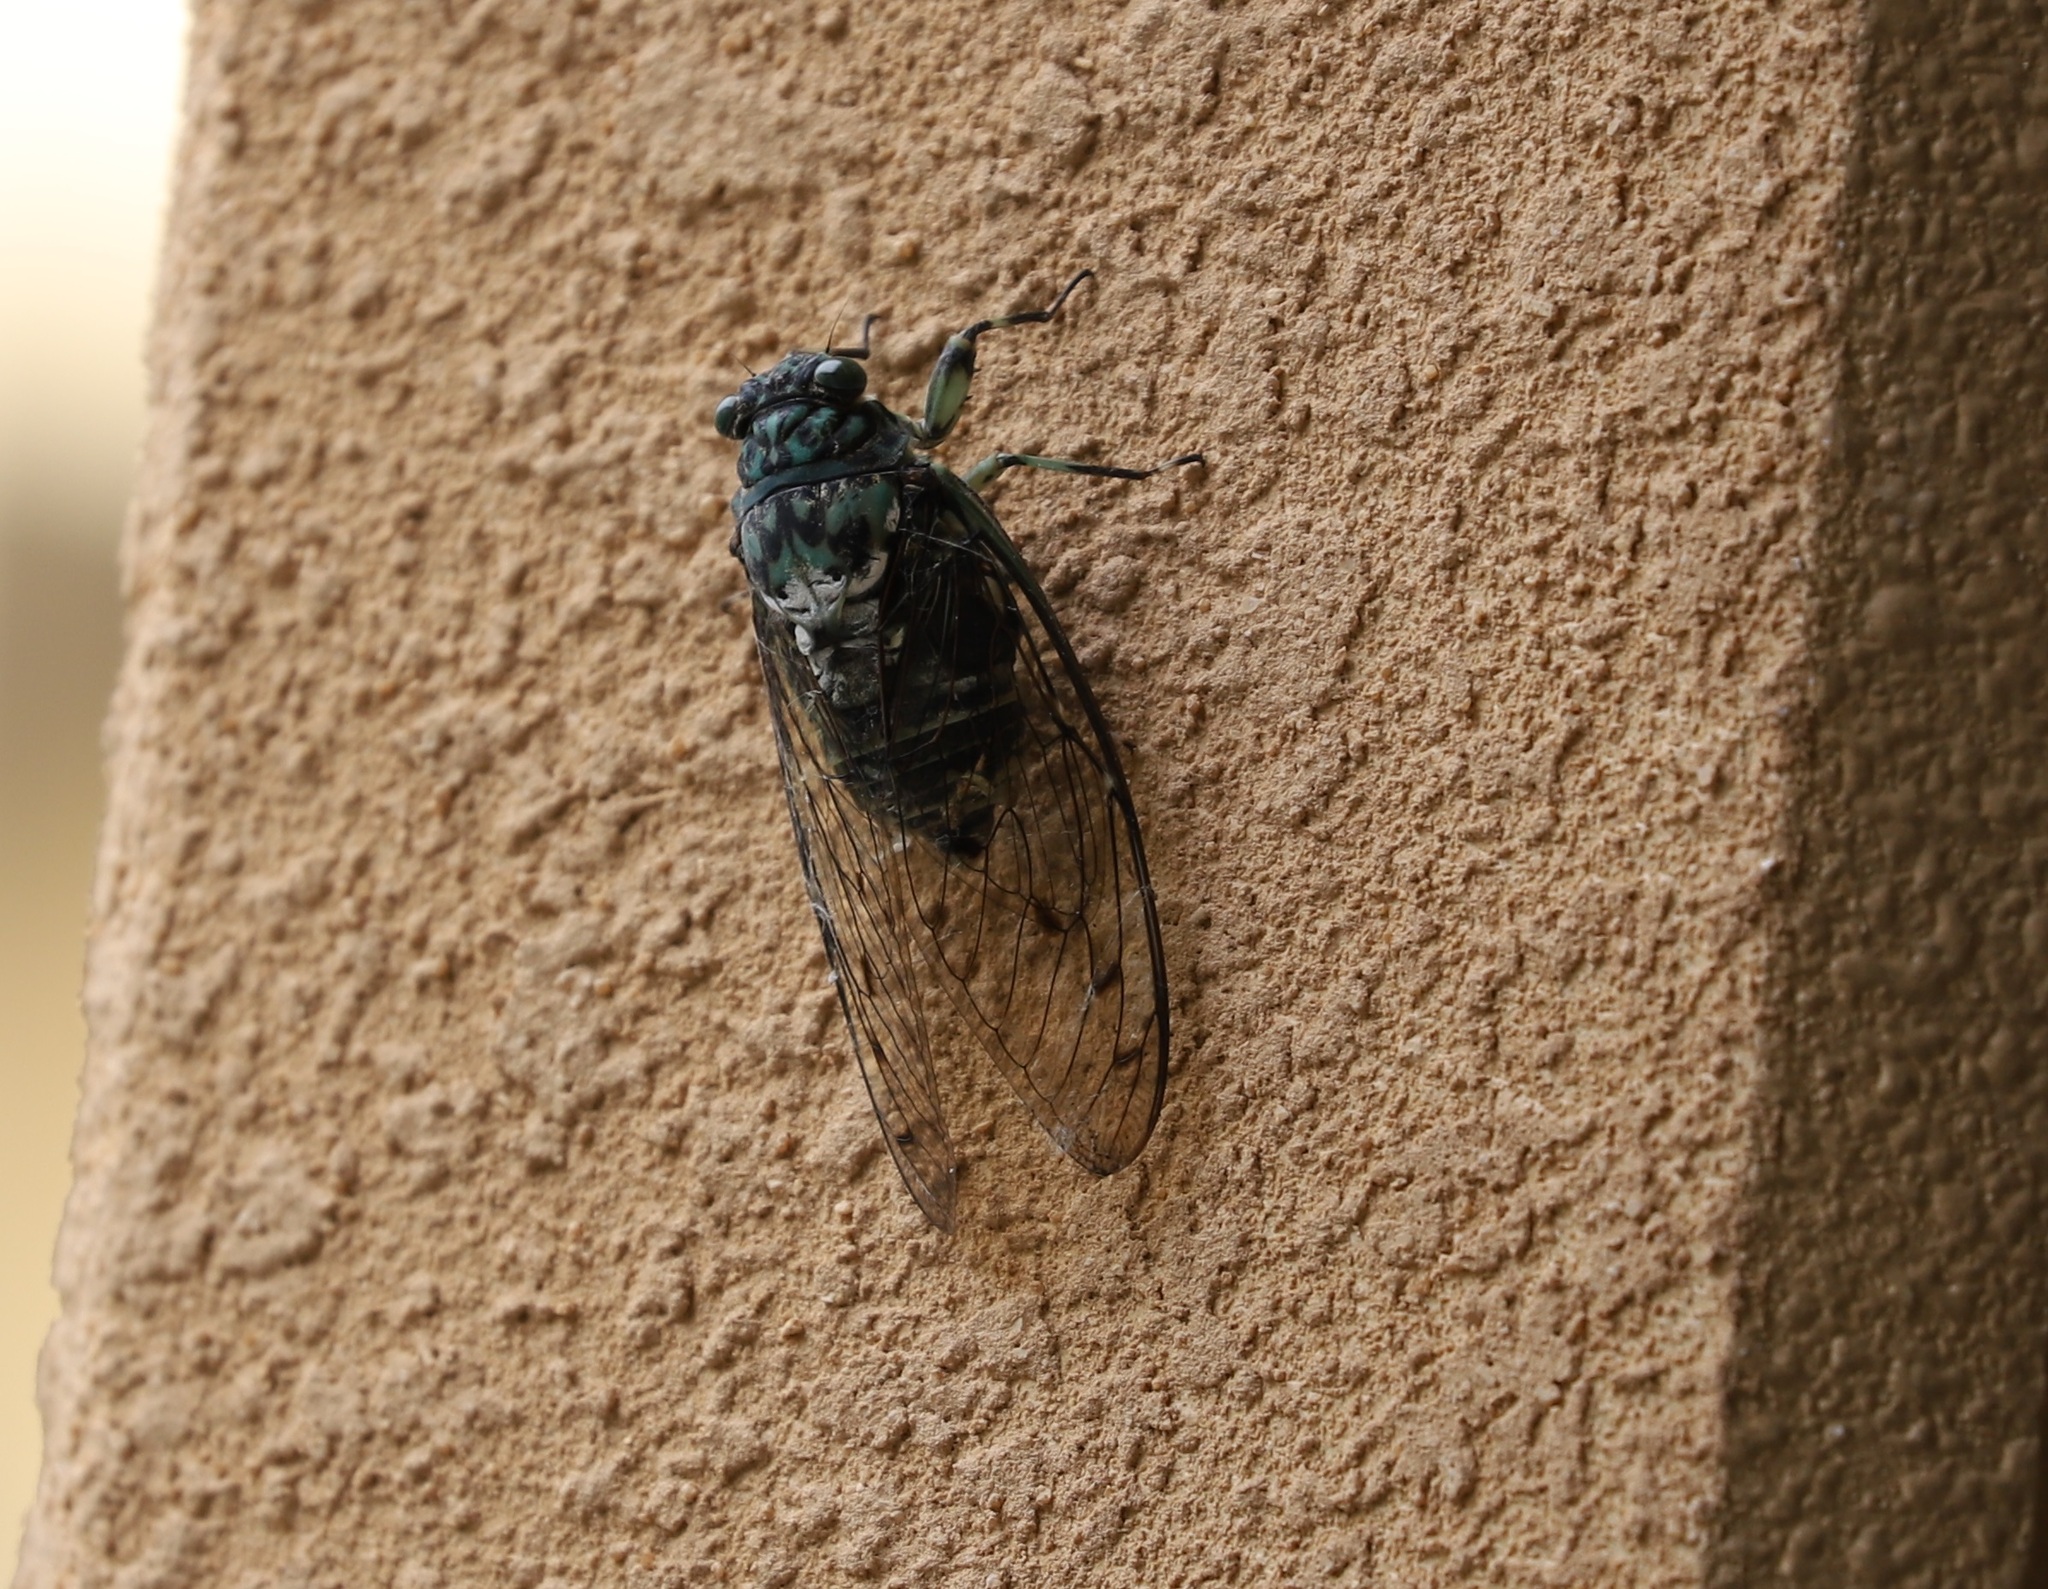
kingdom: Animalia
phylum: Arthropoda
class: Insecta
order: Hemiptera
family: Cicadidae
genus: Hyalessa
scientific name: Hyalessa maculaticollis
